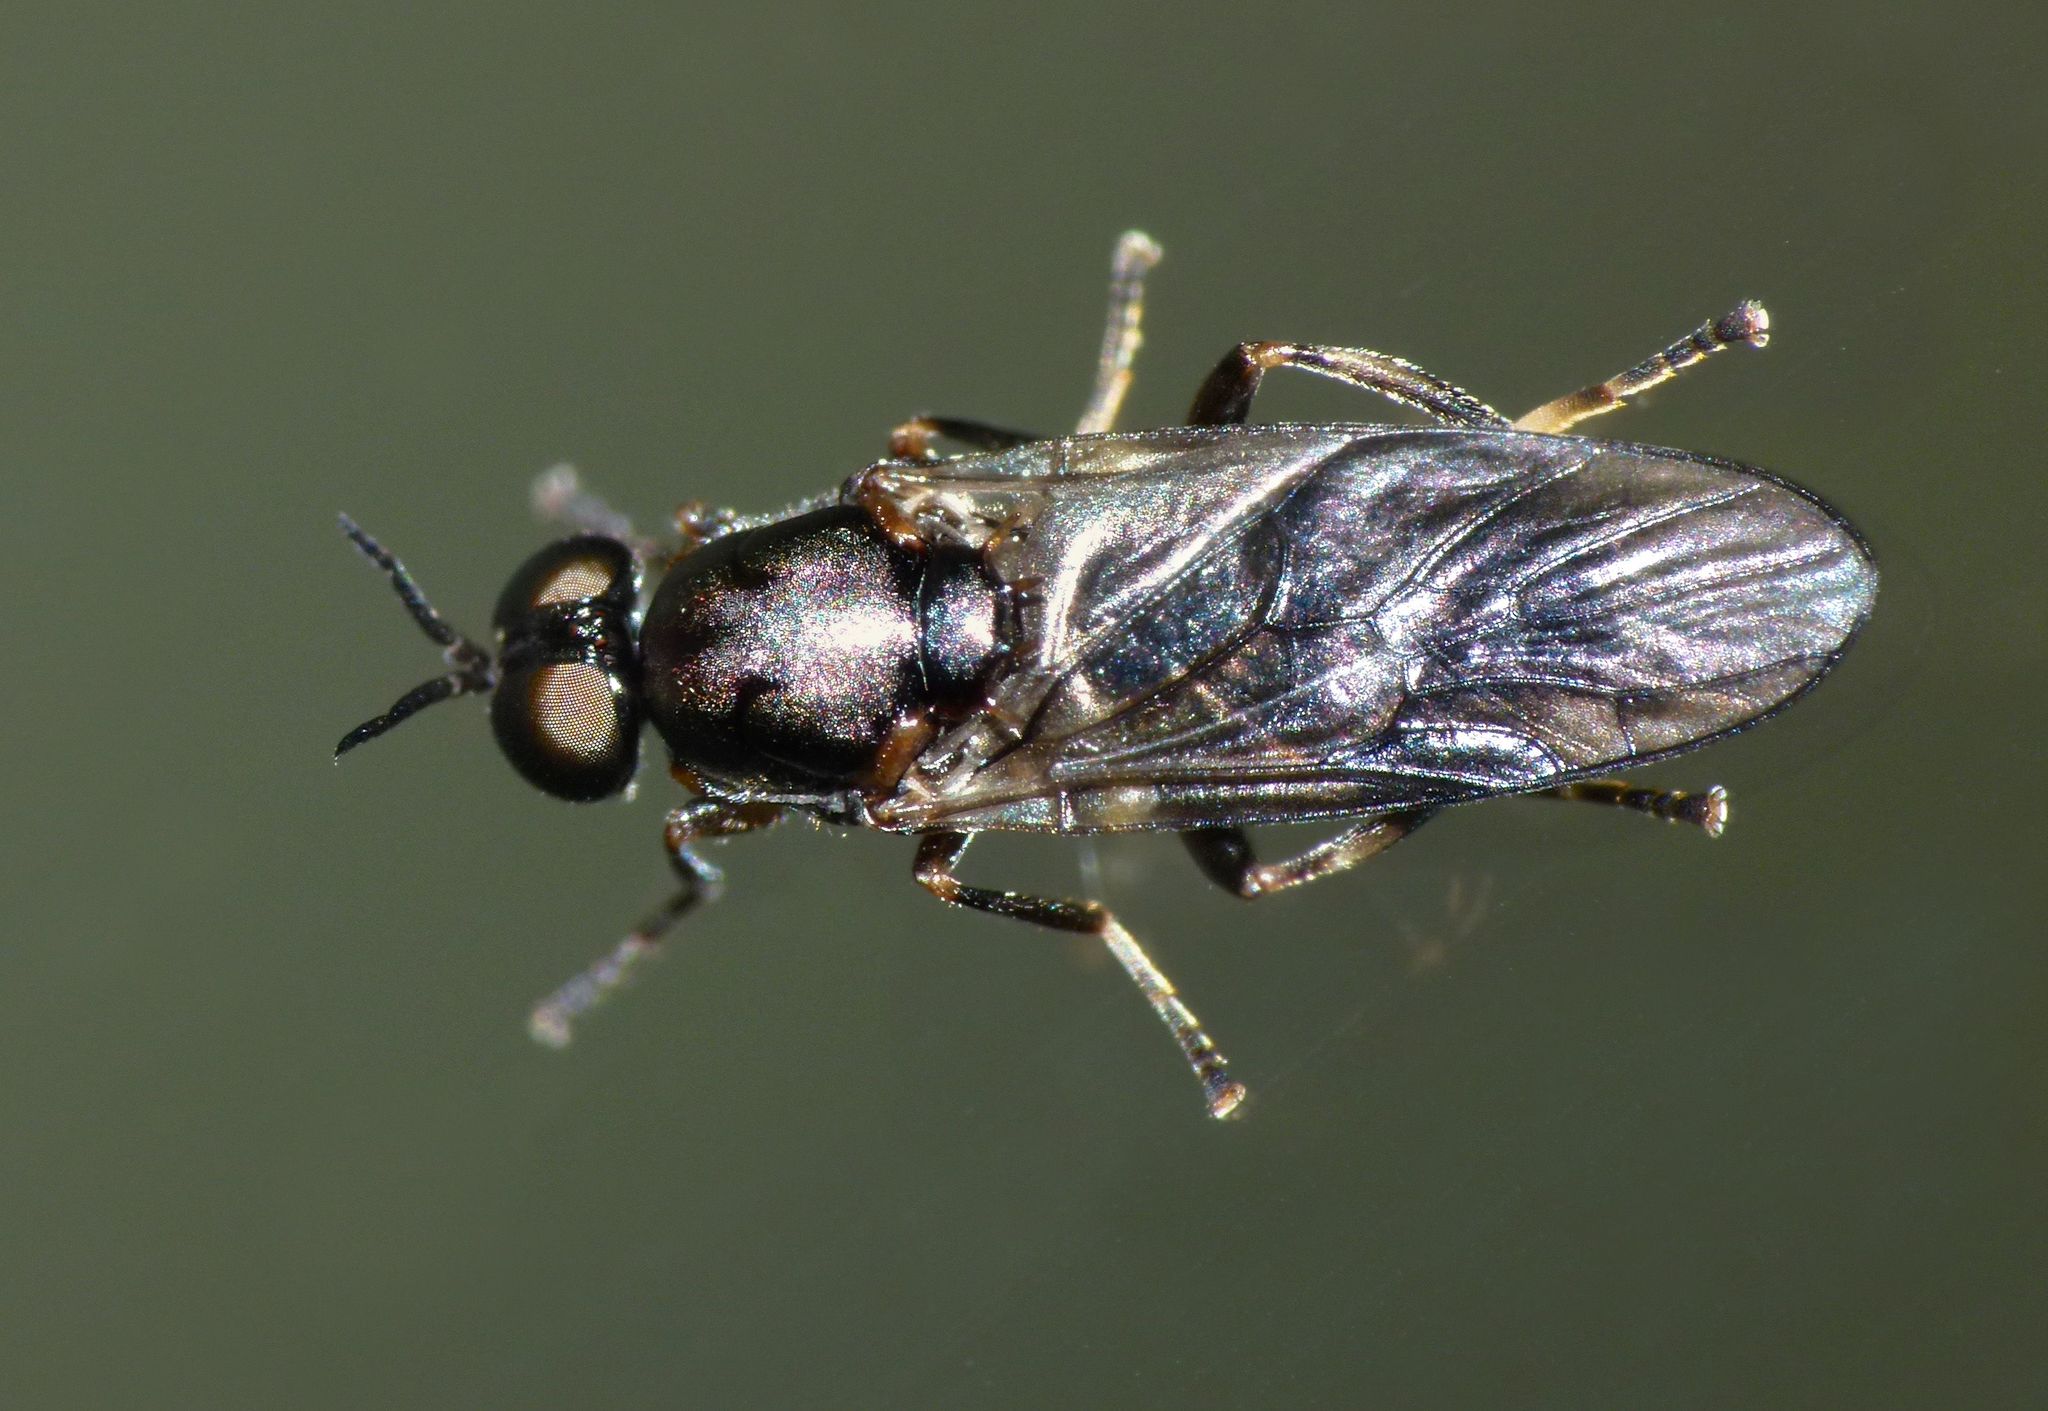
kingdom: Animalia
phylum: Arthropoda
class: Insecta
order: Diptera
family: Stratiomyidae
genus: Zealandoberis
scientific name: Zealandoberis violacea
